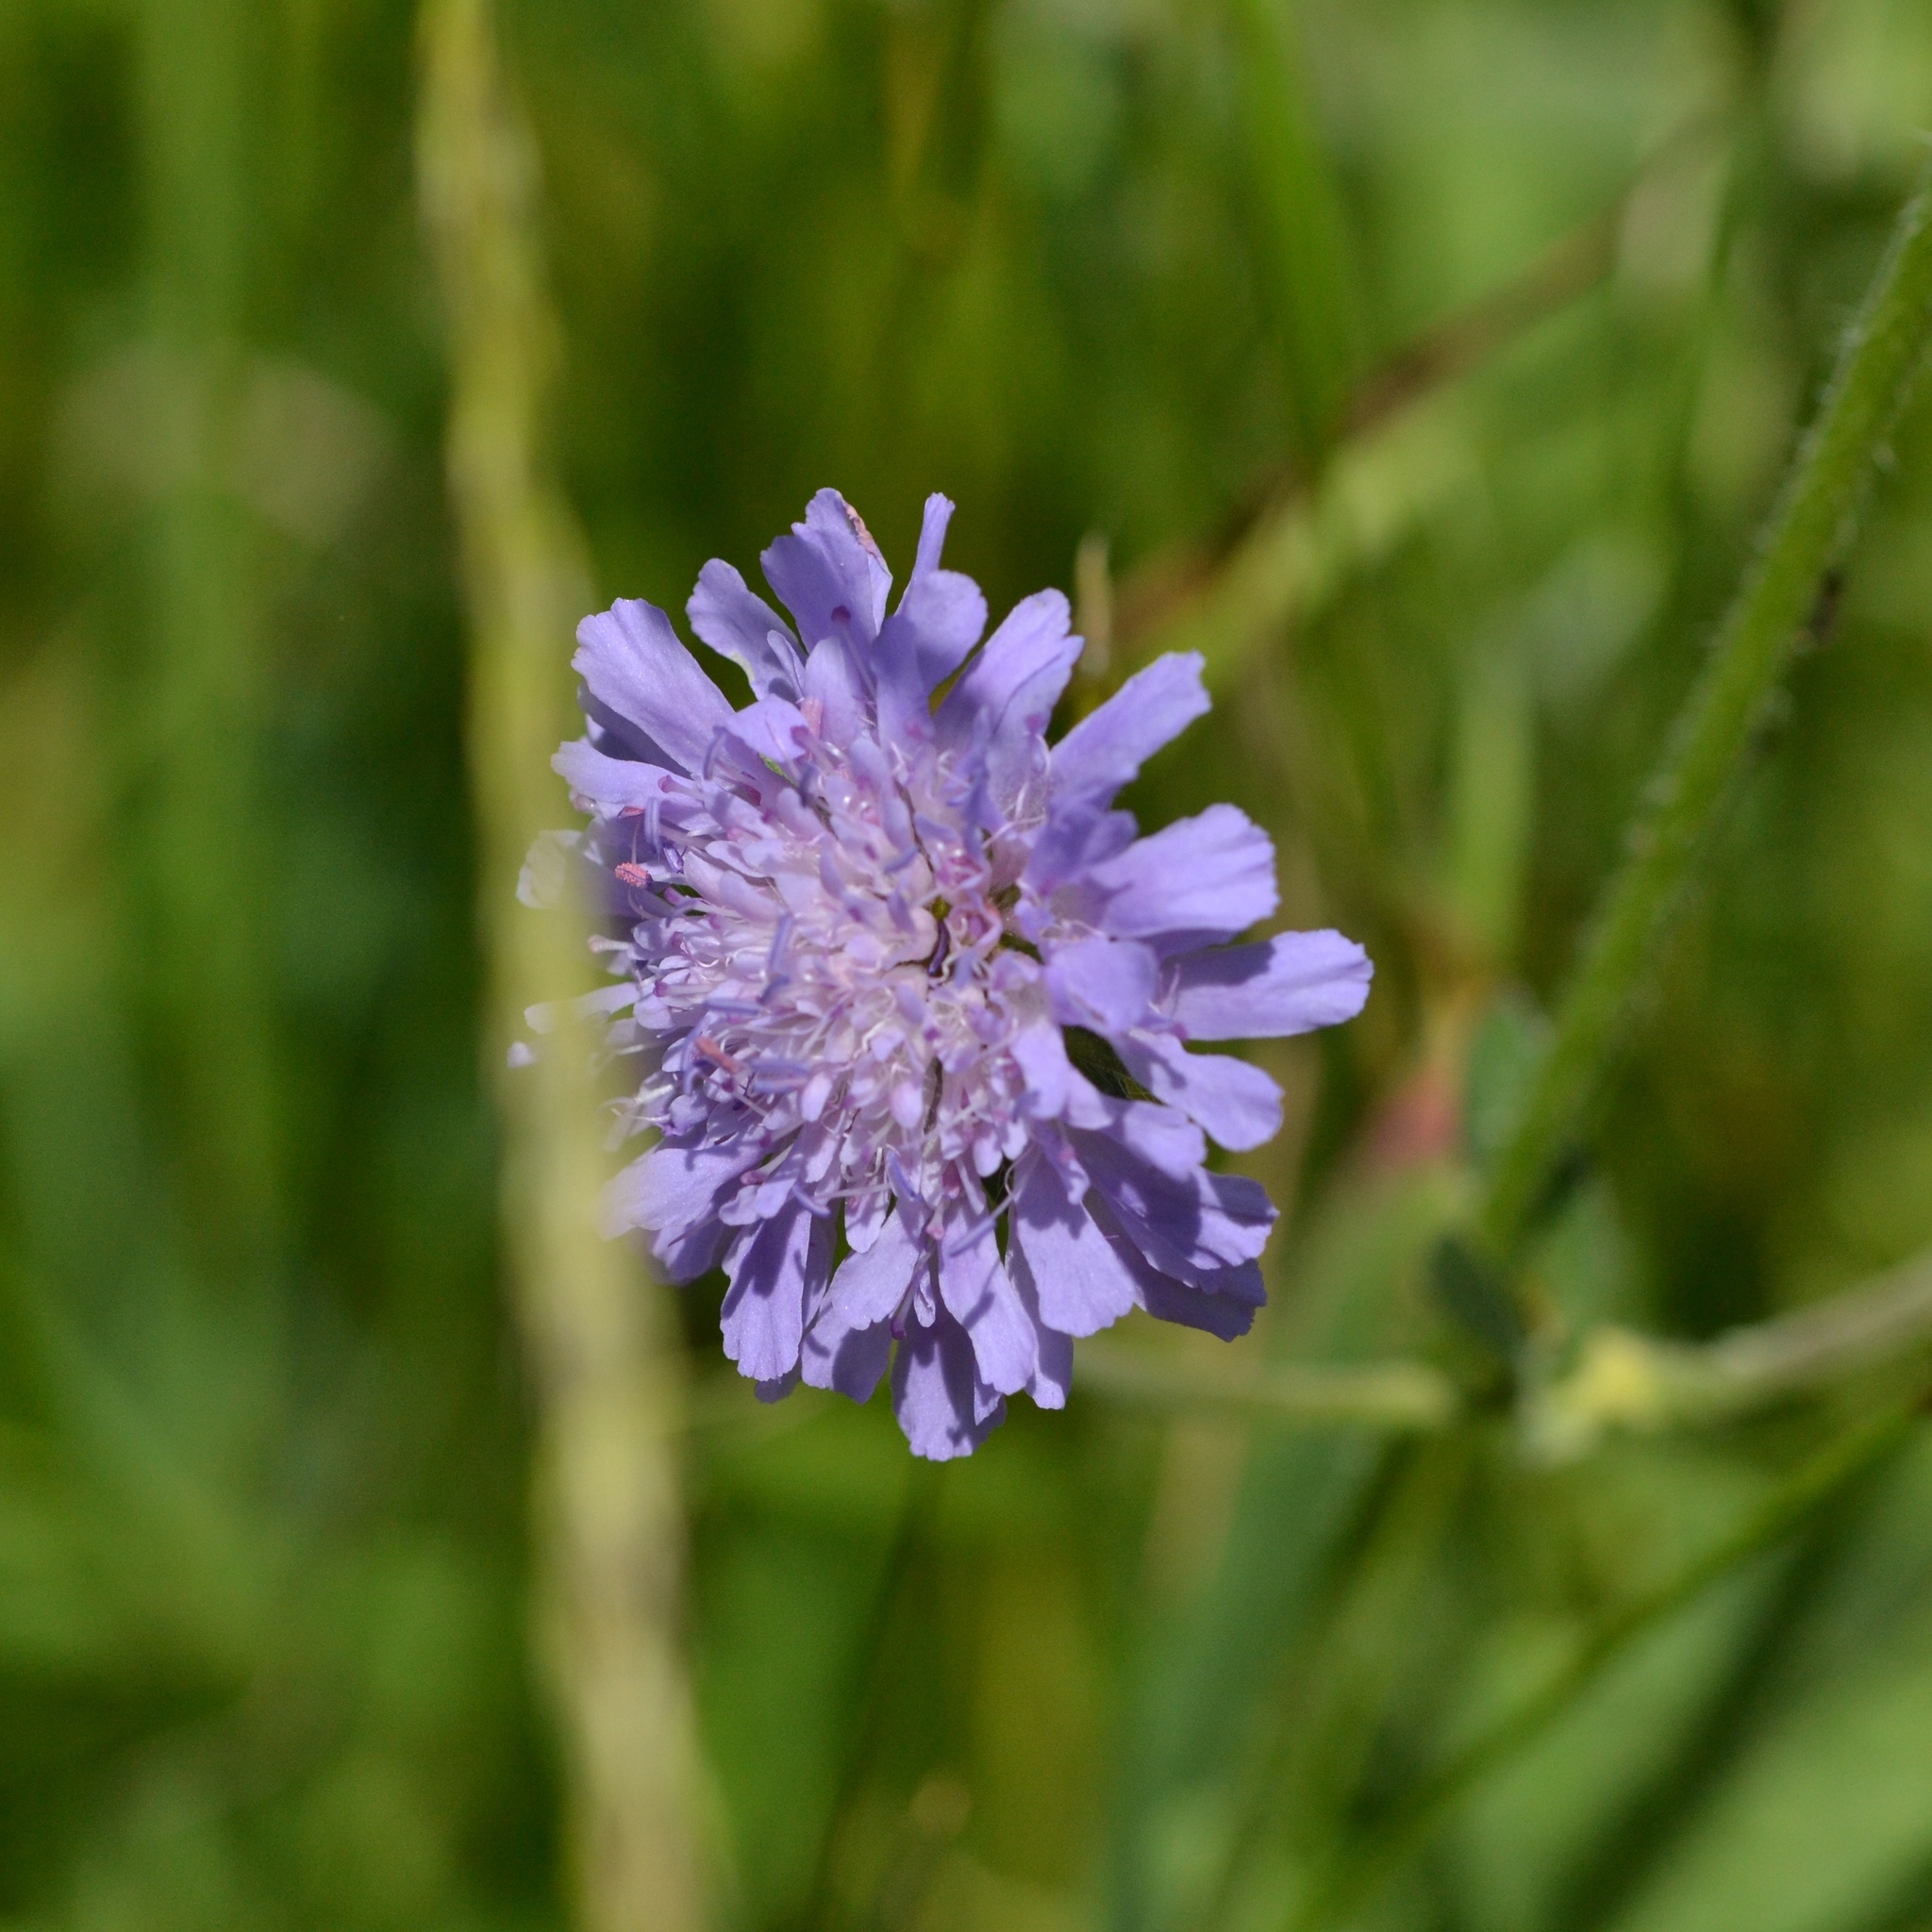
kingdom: Plantae
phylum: Tracheophyta
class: Magnoliopsida
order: Dipsacales
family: Caprifoliaceae
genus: Knautia
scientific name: Knautia arvensis
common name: Field scabiosa
